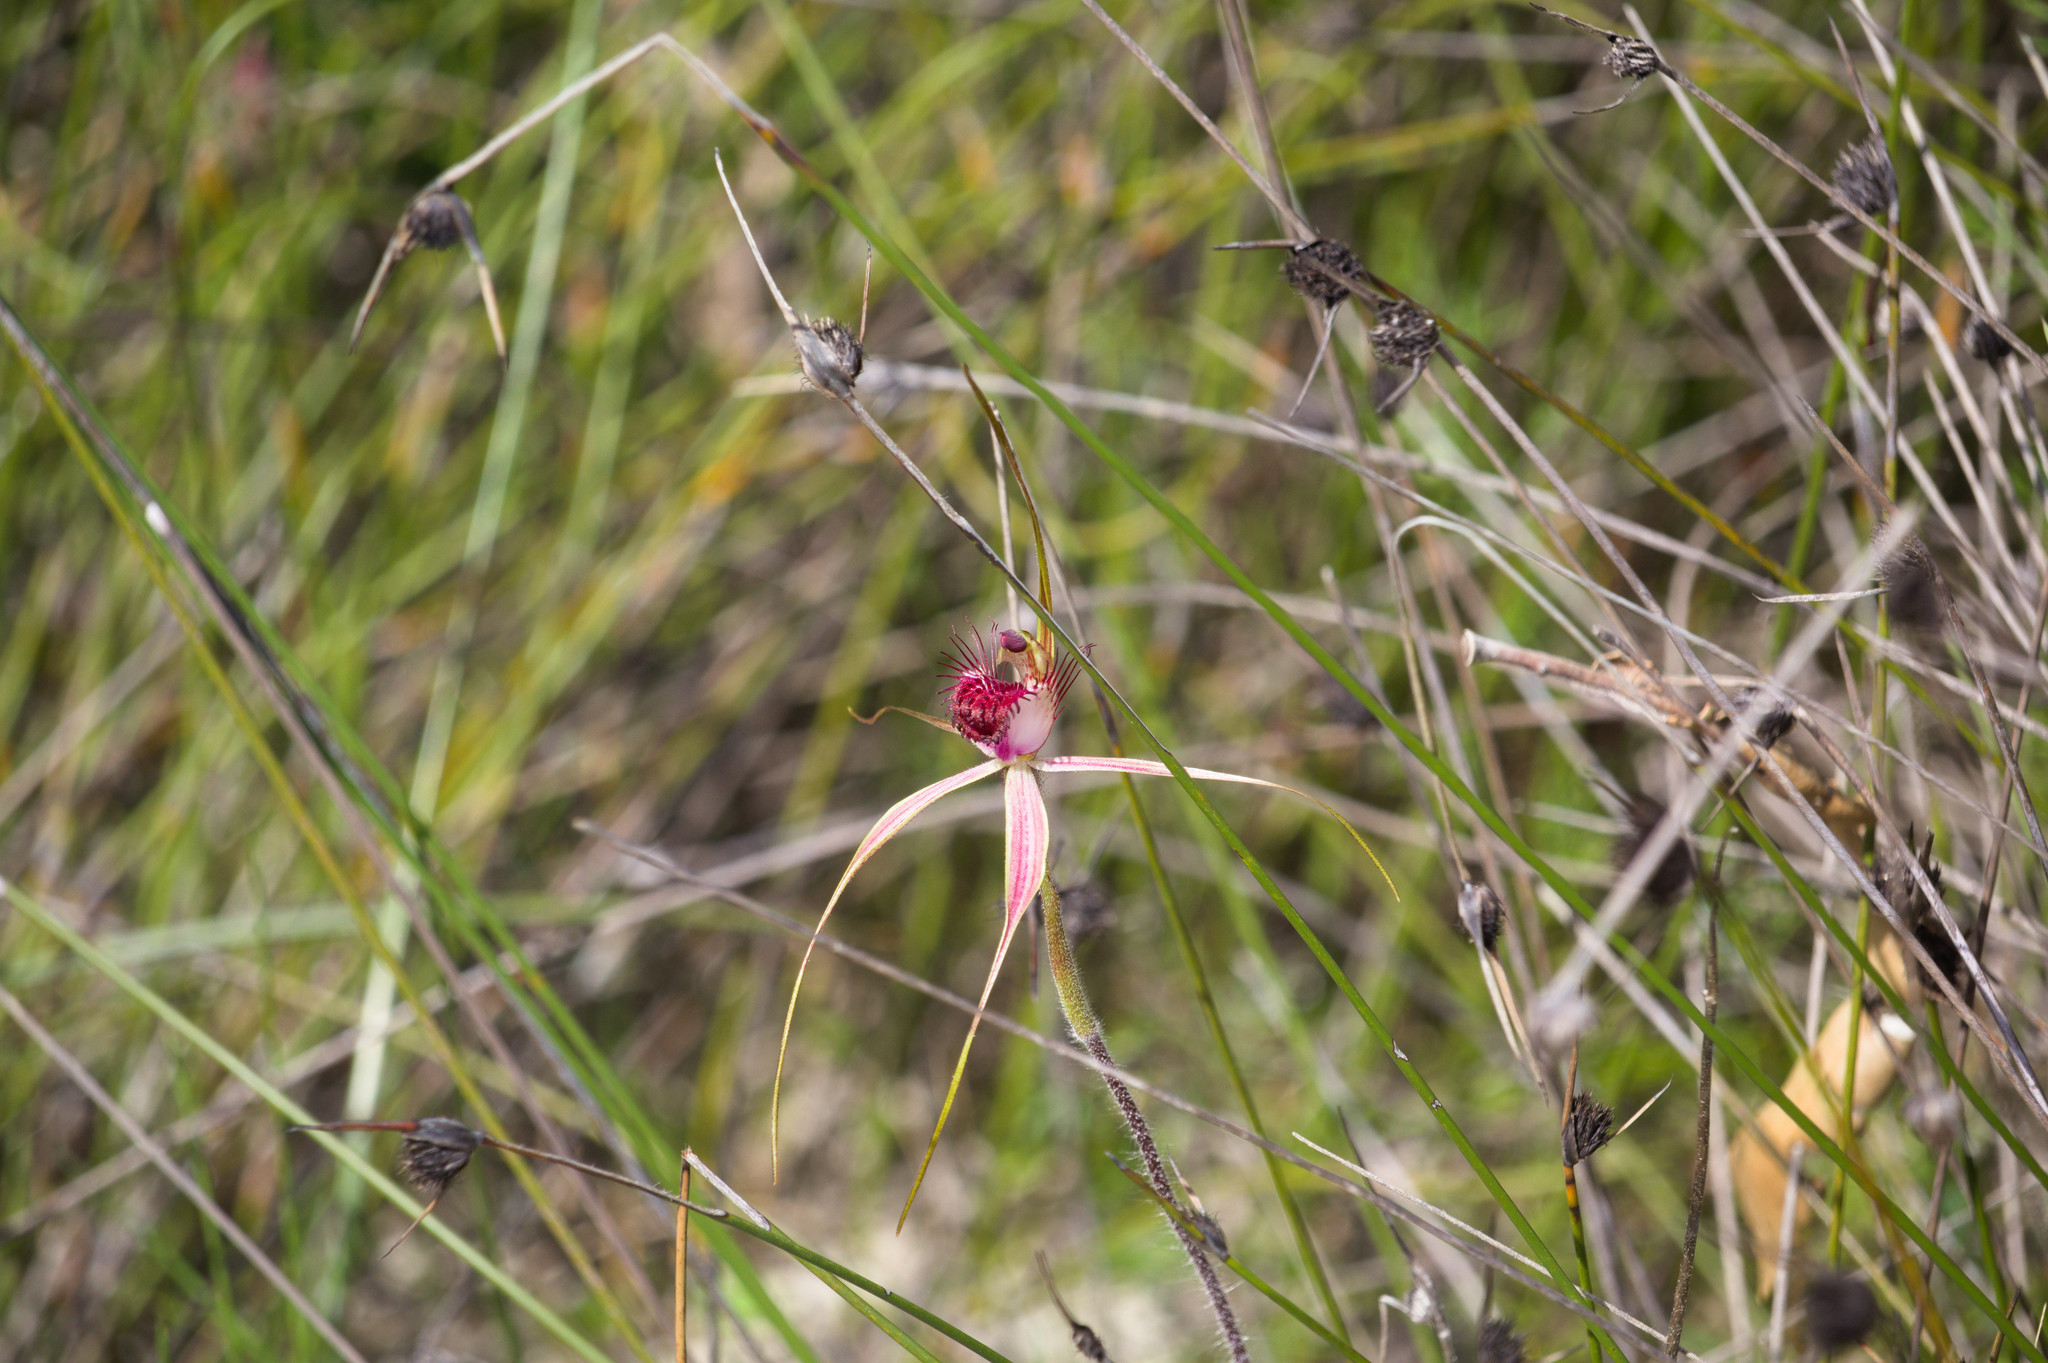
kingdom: Plantae
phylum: Tracheophyta
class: Liliopsida
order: Asparagales
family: Orchidaceae
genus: Caladenia
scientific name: Caladenia arenicola
